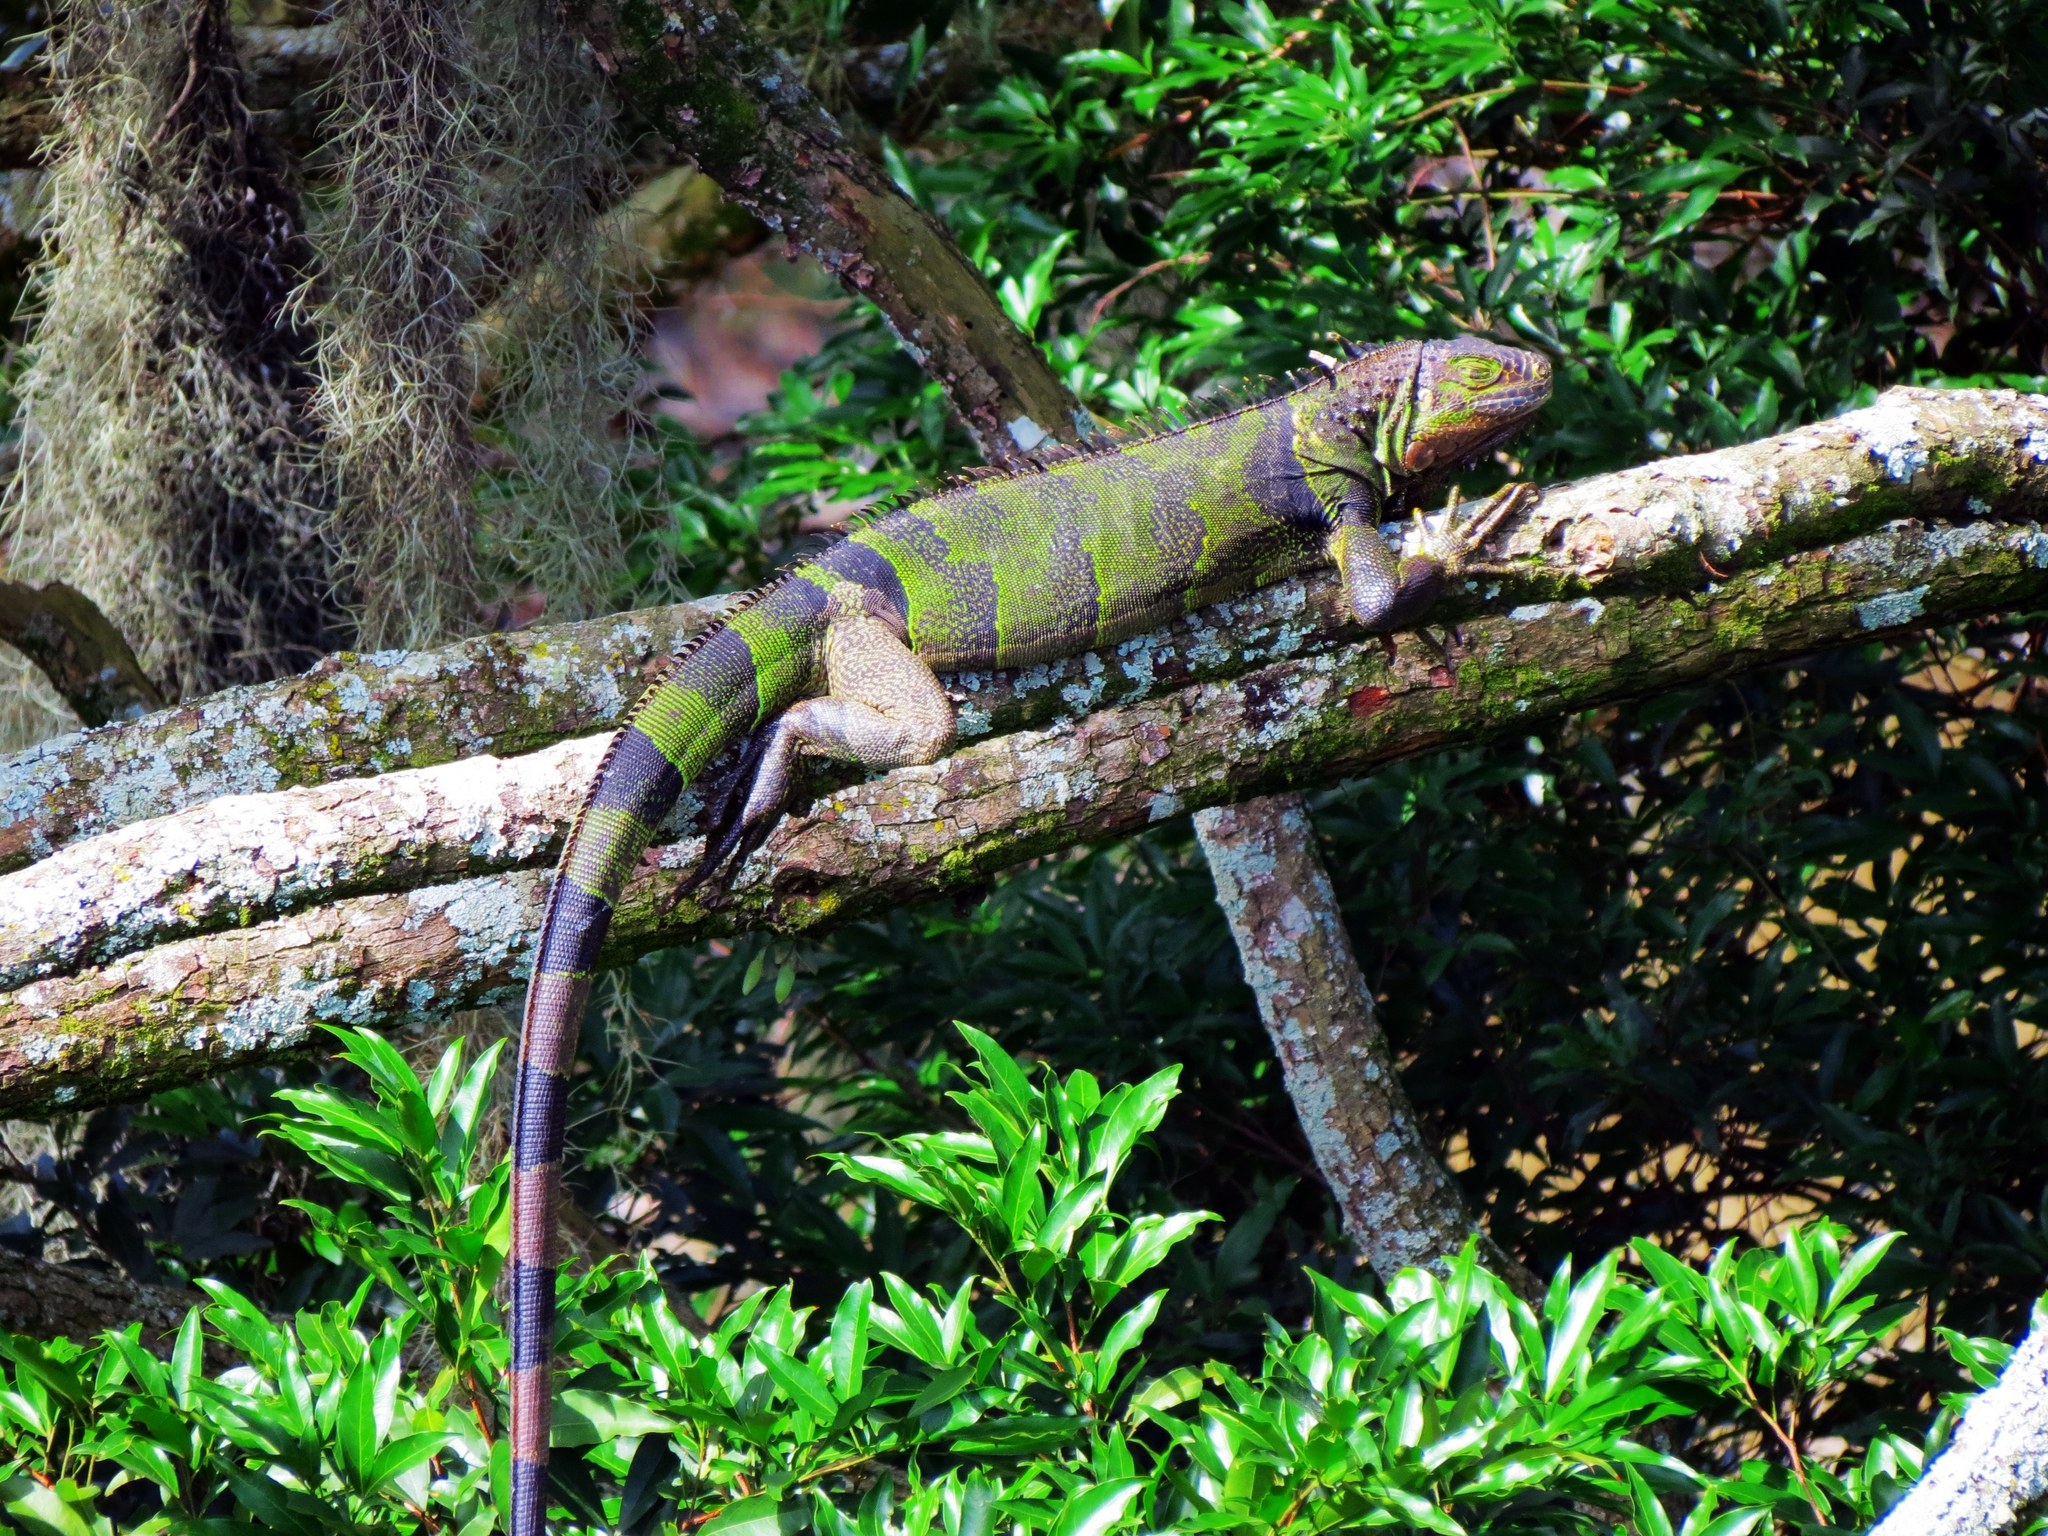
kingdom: Animalia
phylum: Chordata
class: Squamata
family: Iguanidae
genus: Iguana
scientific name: Iguana iguana
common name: Green iguana
